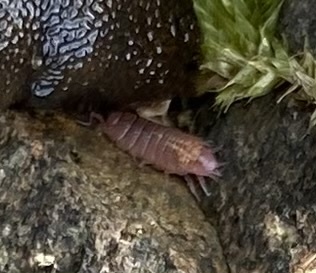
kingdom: Animalia
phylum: Arthropoda
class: Malacostraca
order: Isopoda
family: Trichoniscidae
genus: Androniscus
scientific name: Androniscus dentiger
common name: Rosy woodlouse
